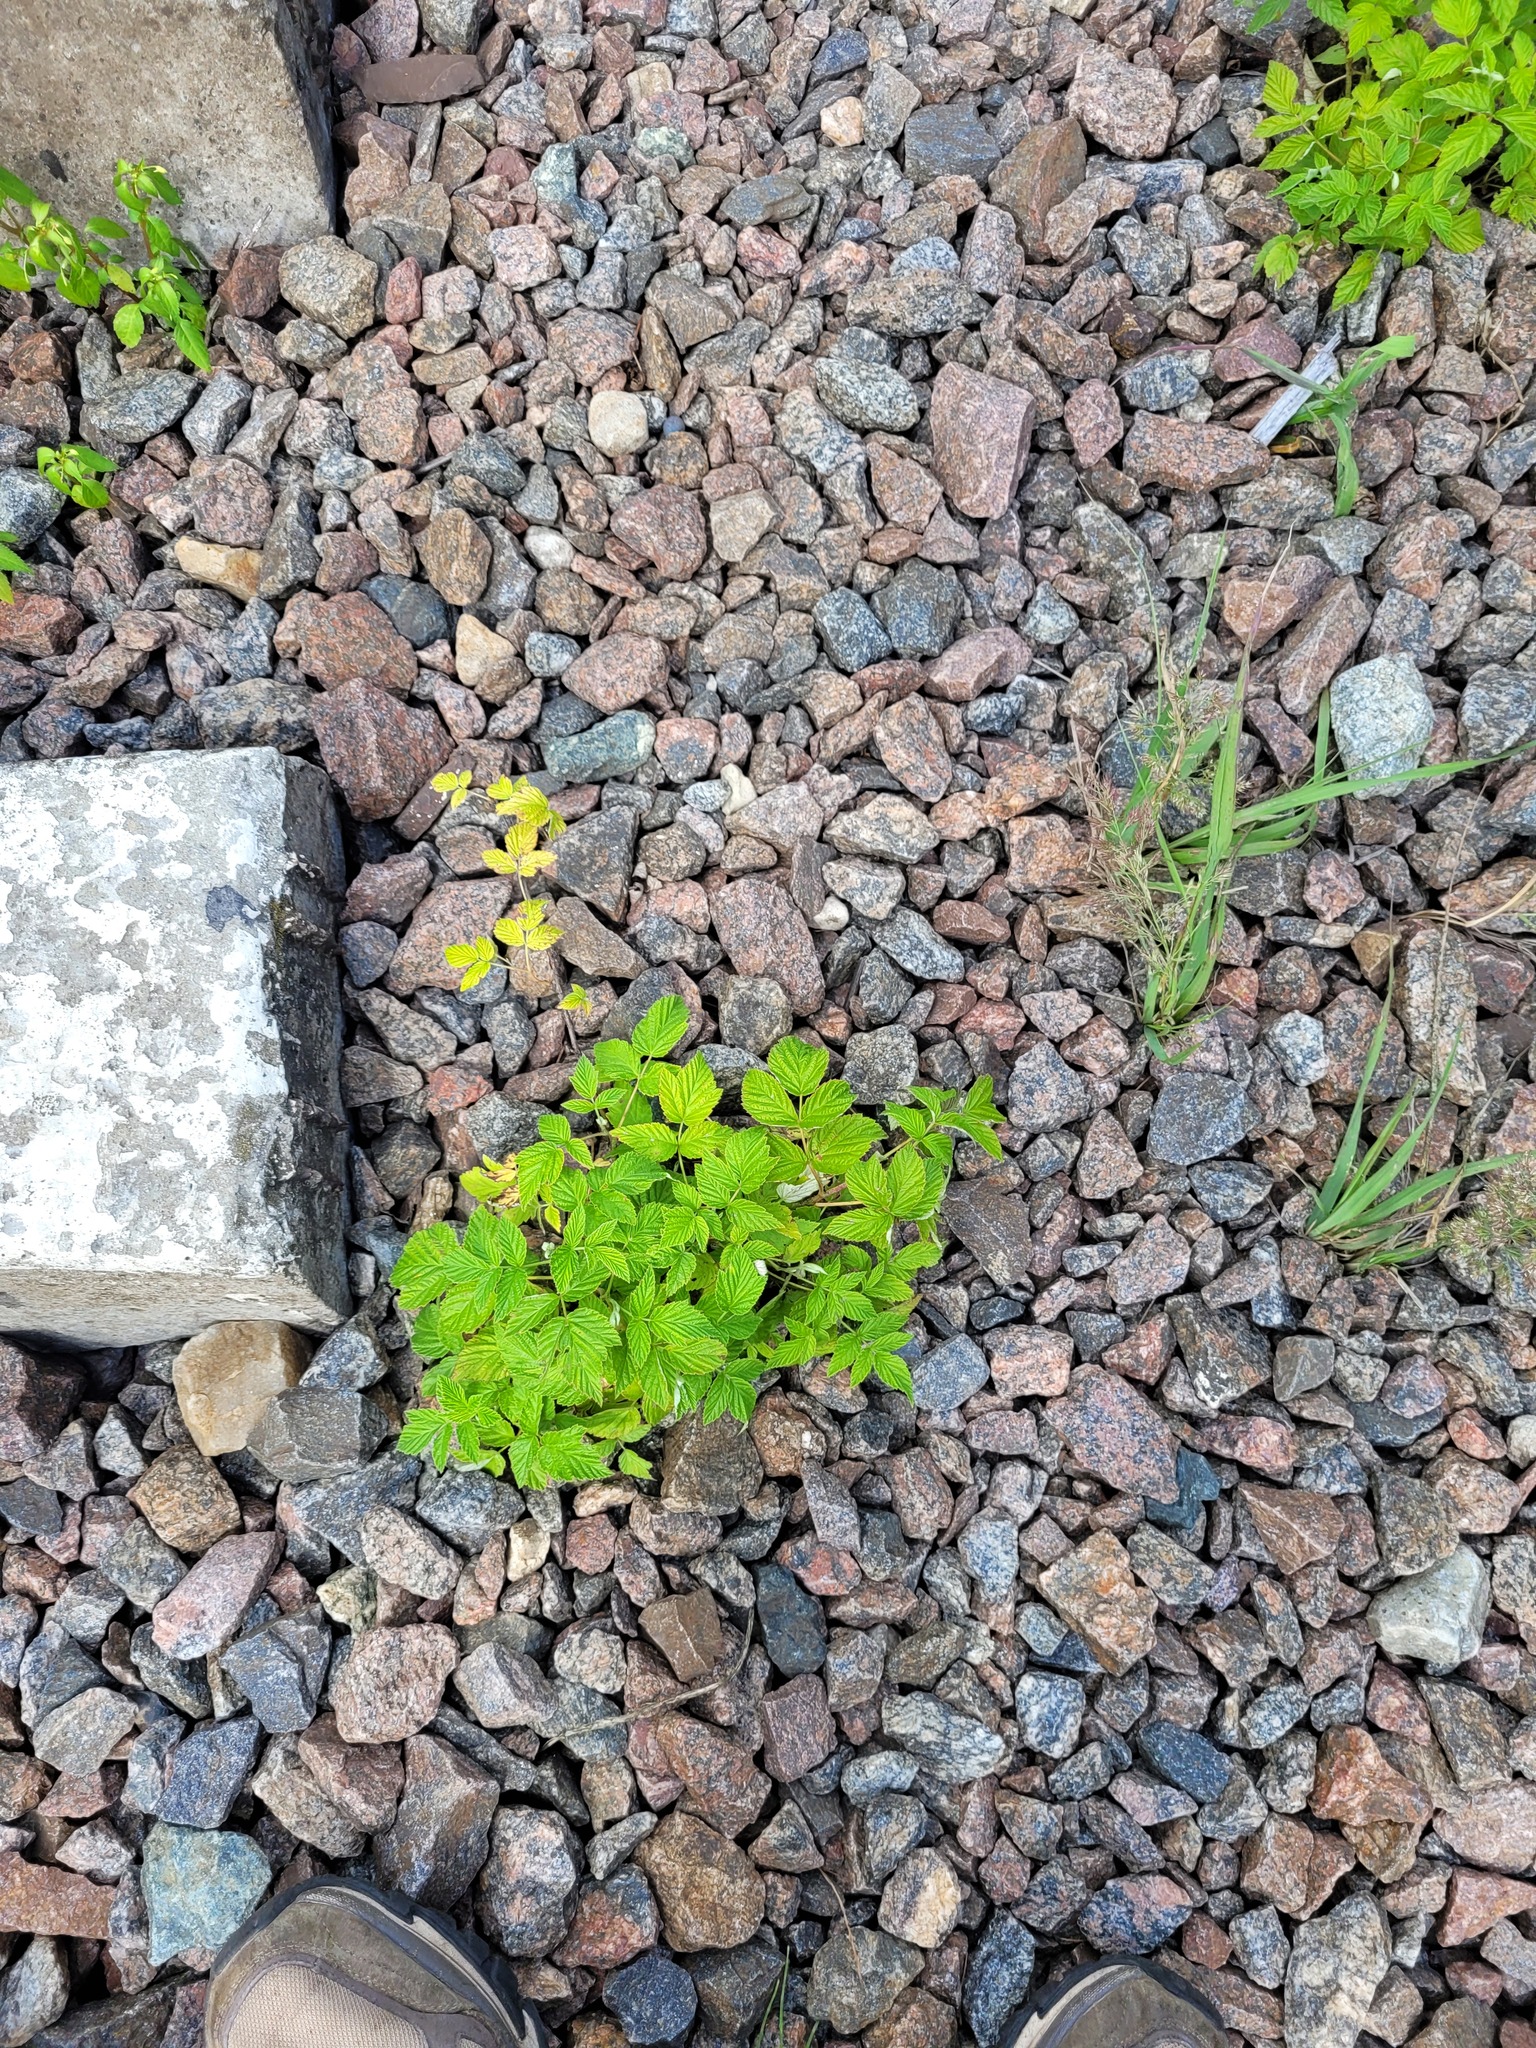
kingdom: Plantae
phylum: Tracheophyta
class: Magnoliopsida
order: Rosales
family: Rosaceae
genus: Rubus
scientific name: Rubus idaeus
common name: Raspberry
